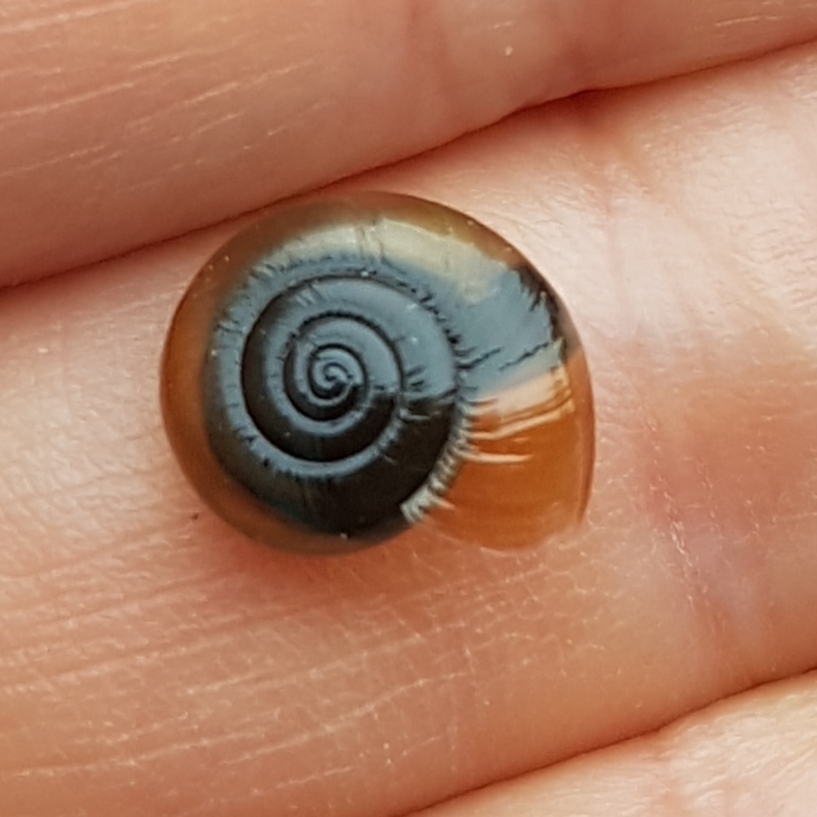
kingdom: Animalia
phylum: Mollusca
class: Gastropoda
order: Stylommatophora
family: Oxychilidae
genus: Oxychilus
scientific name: Oxychilus draparnaudi
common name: Draparnaud's glass snail
